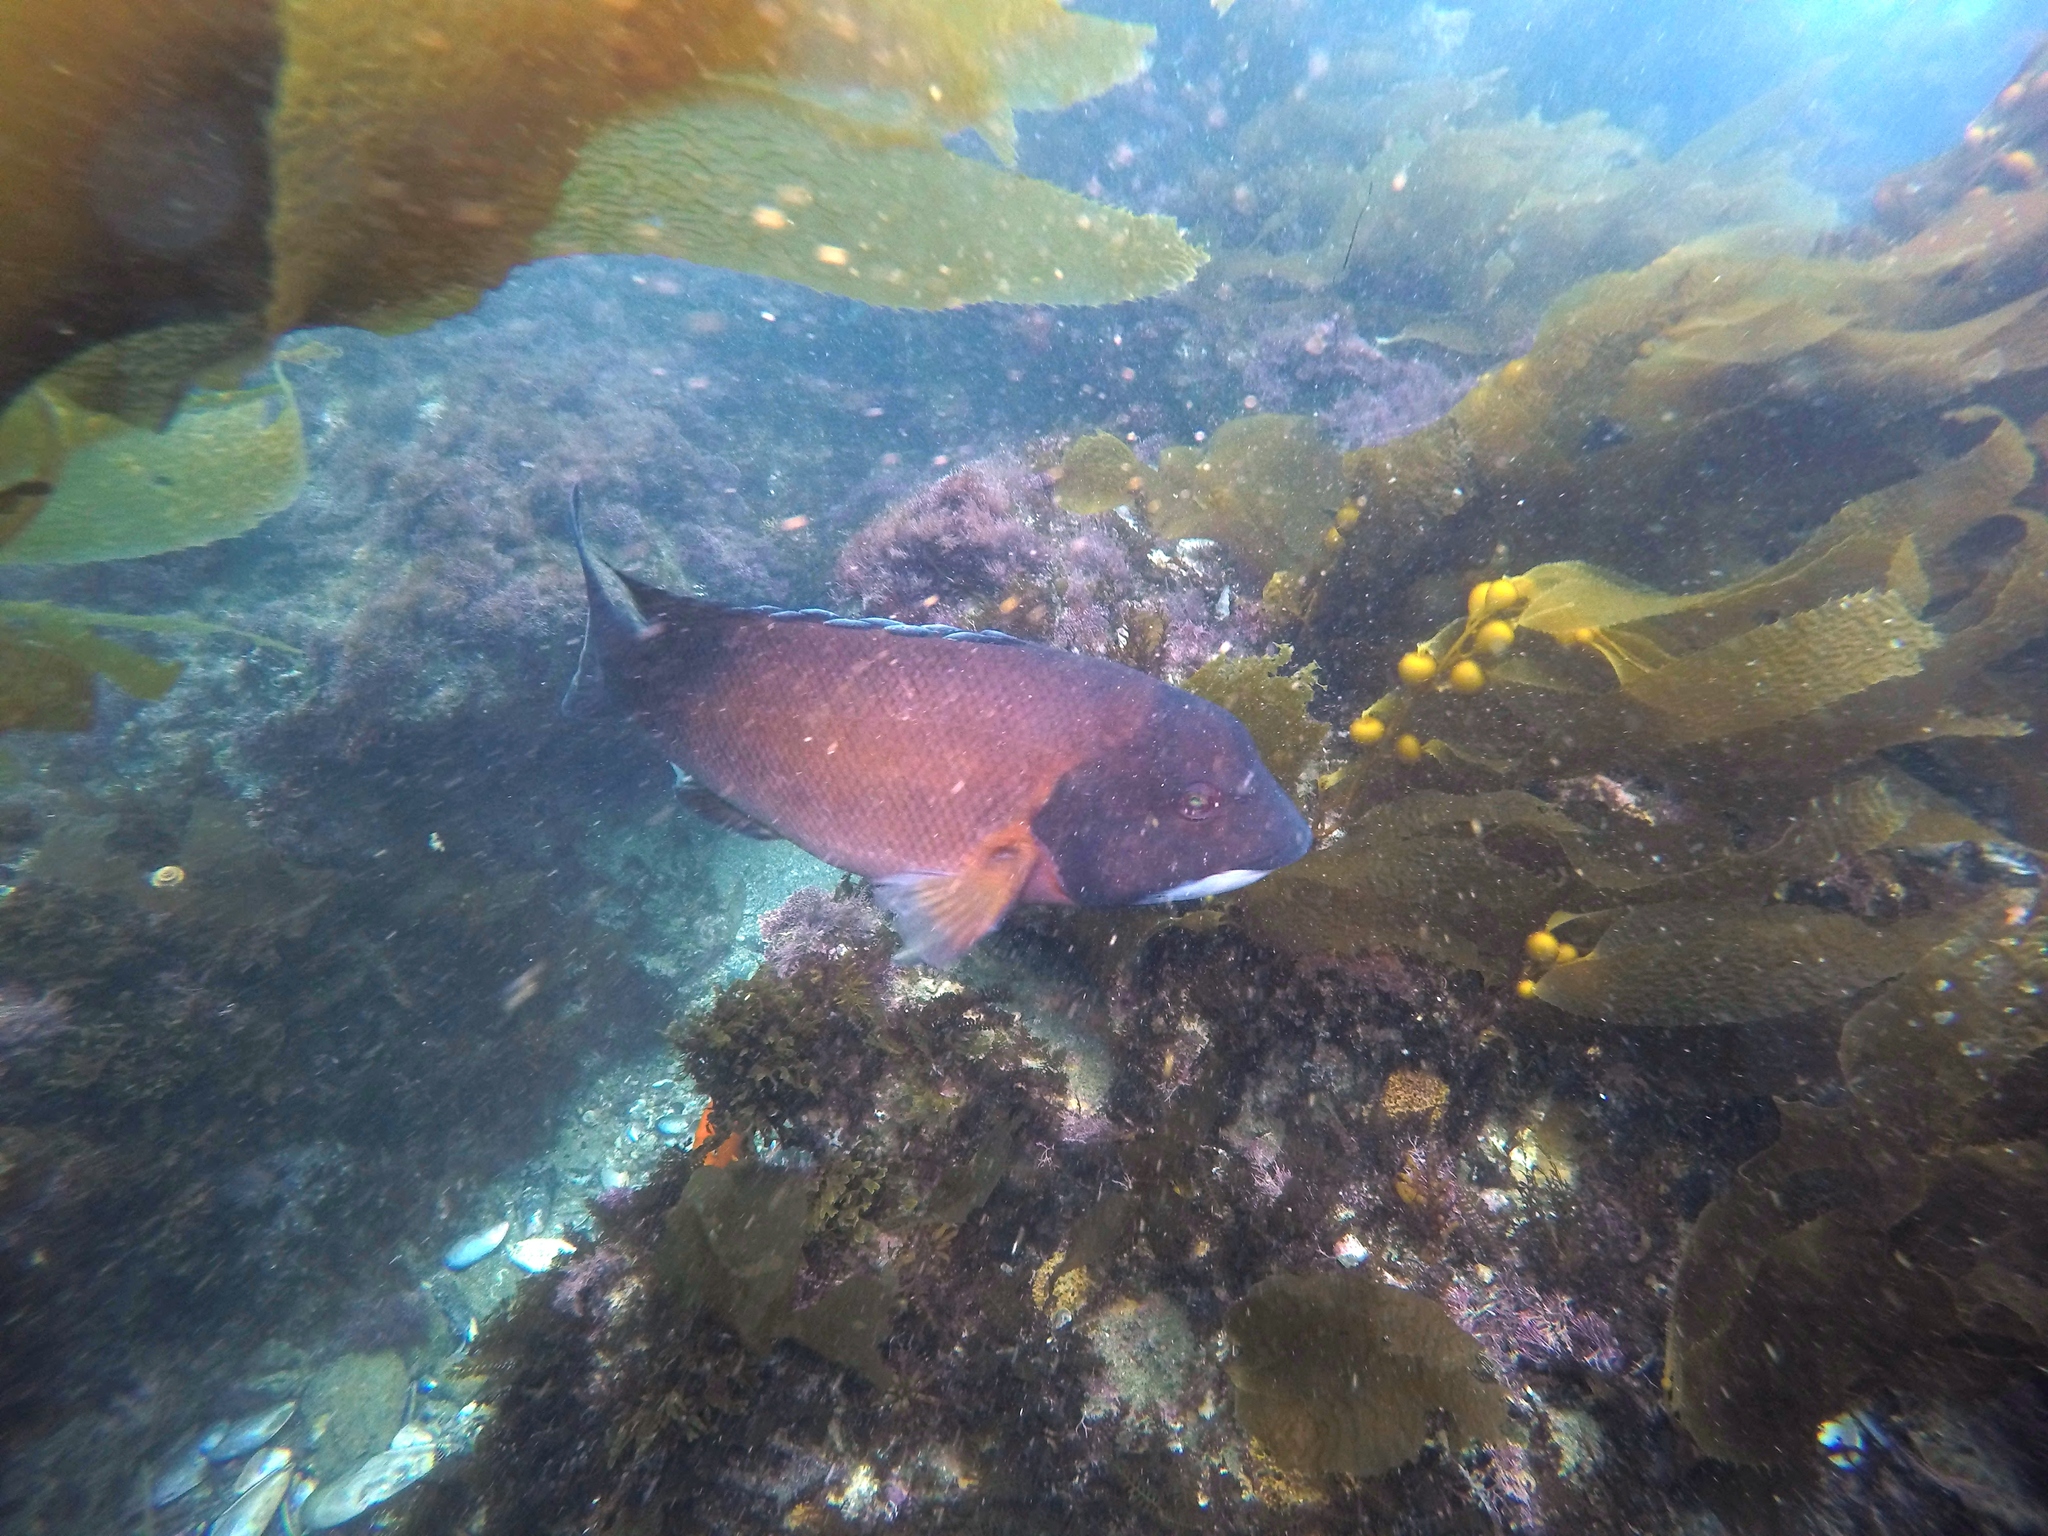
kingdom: Animalia
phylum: Chordata
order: Perciformes
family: Labridae
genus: Semicossyphus
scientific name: Semicossyphus pulcher
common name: California sheephead
